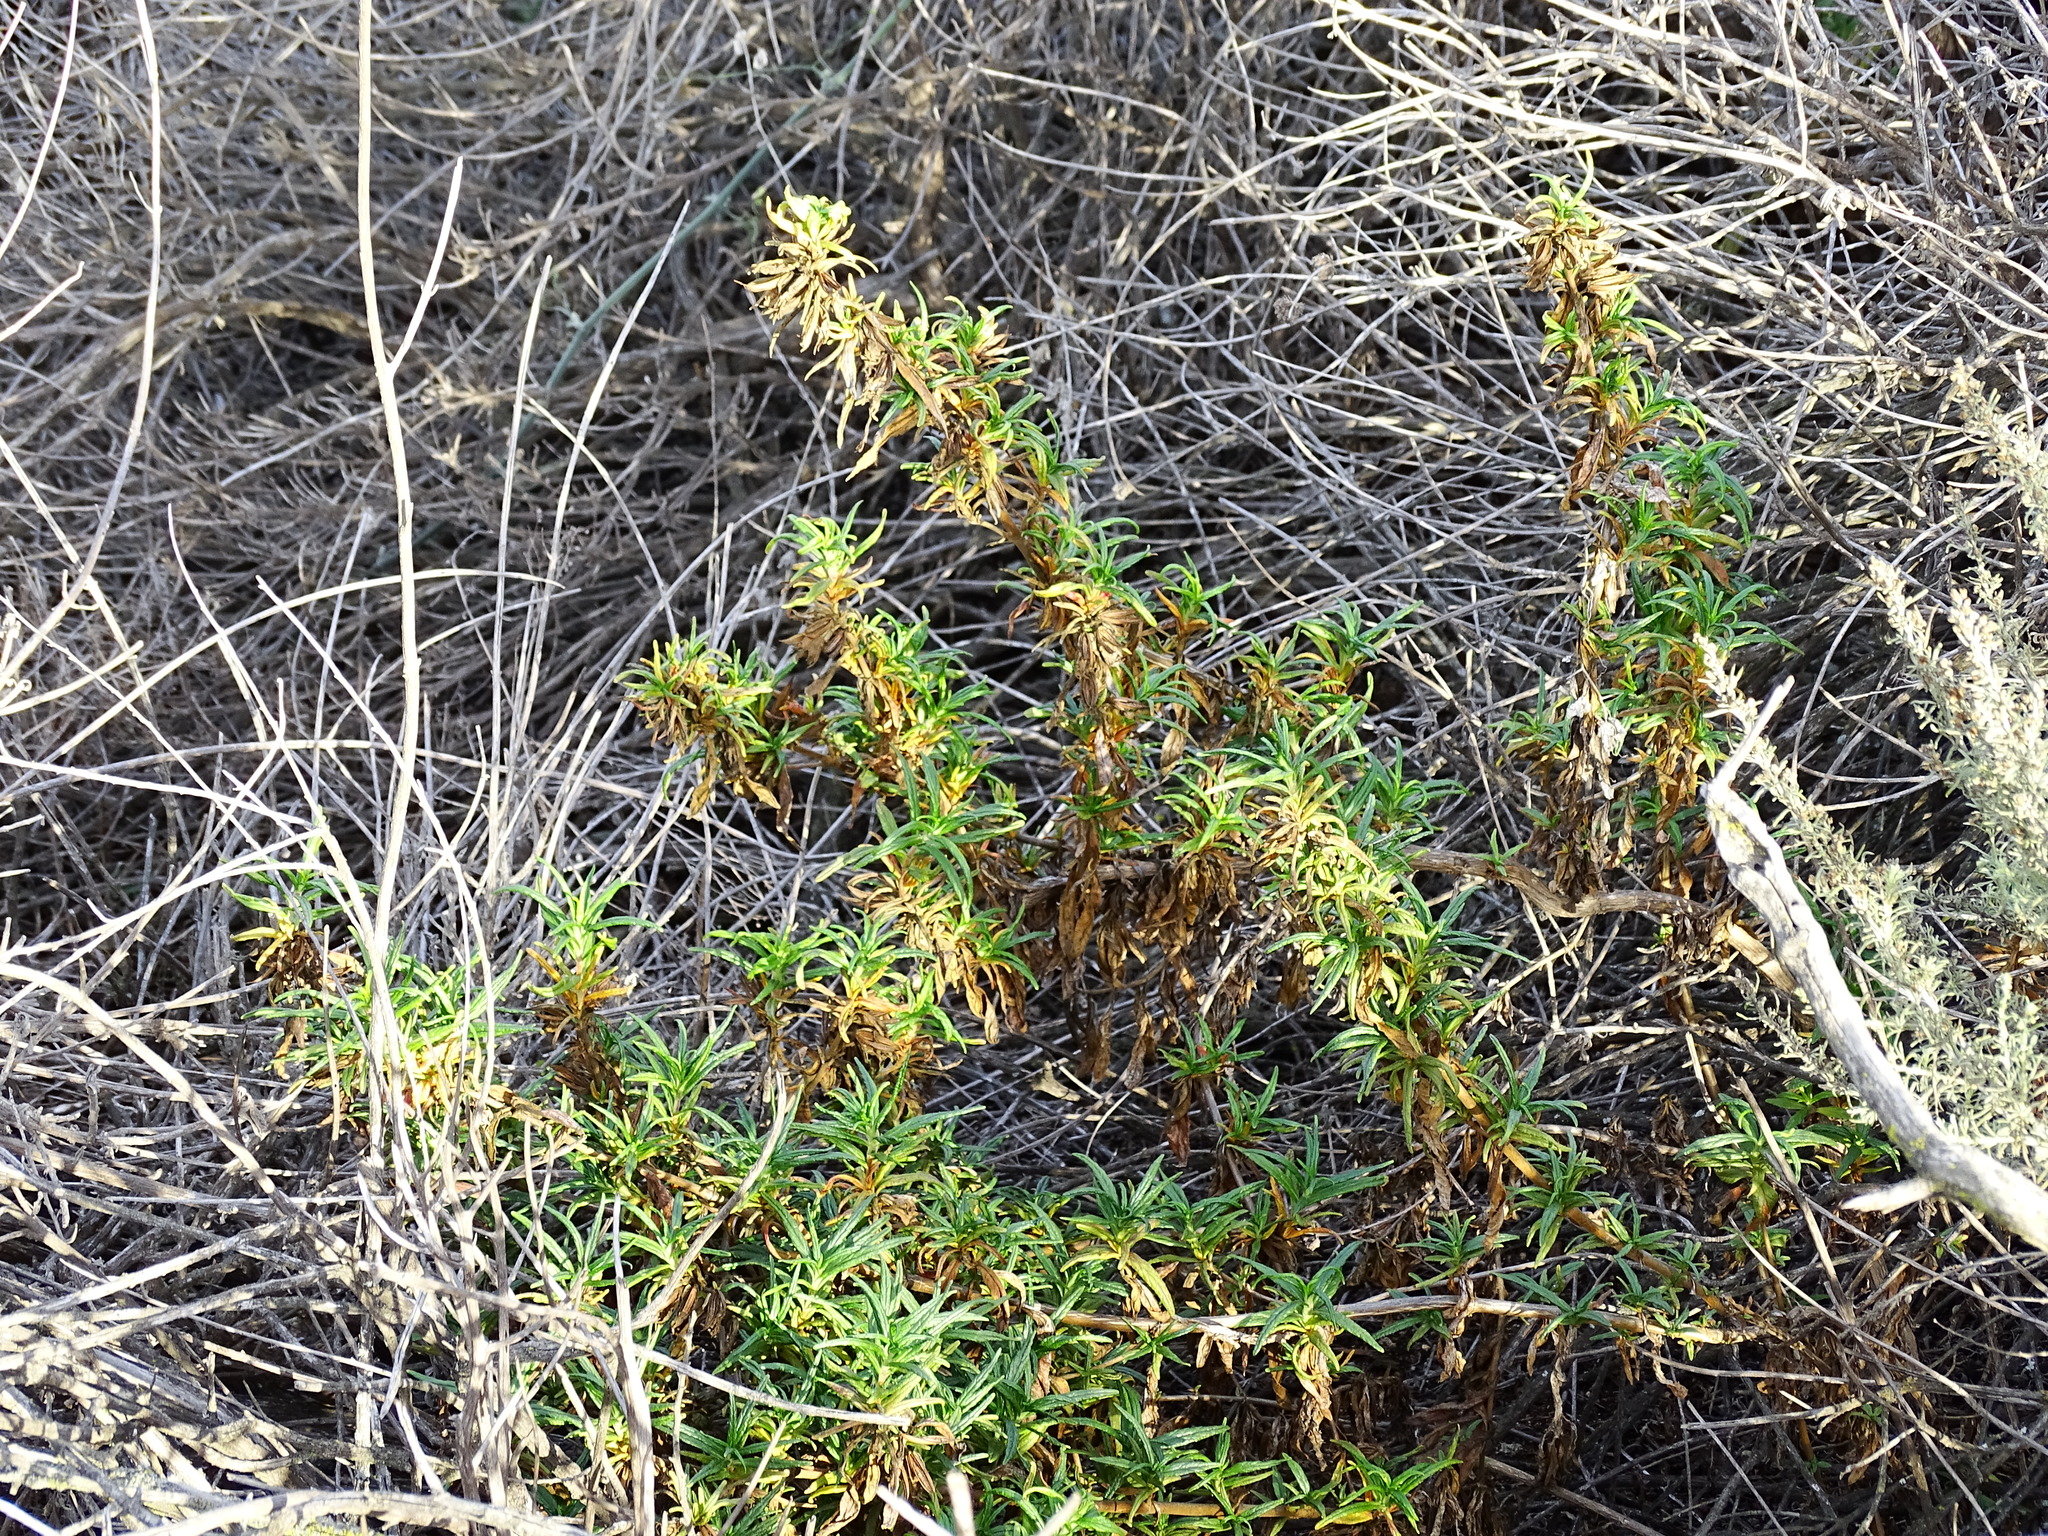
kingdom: Plantae
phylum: Tracheophyta
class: Magnoliopsida
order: Lamiales
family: Phrymaceae
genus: Diplacus
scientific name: Diplacus australis
